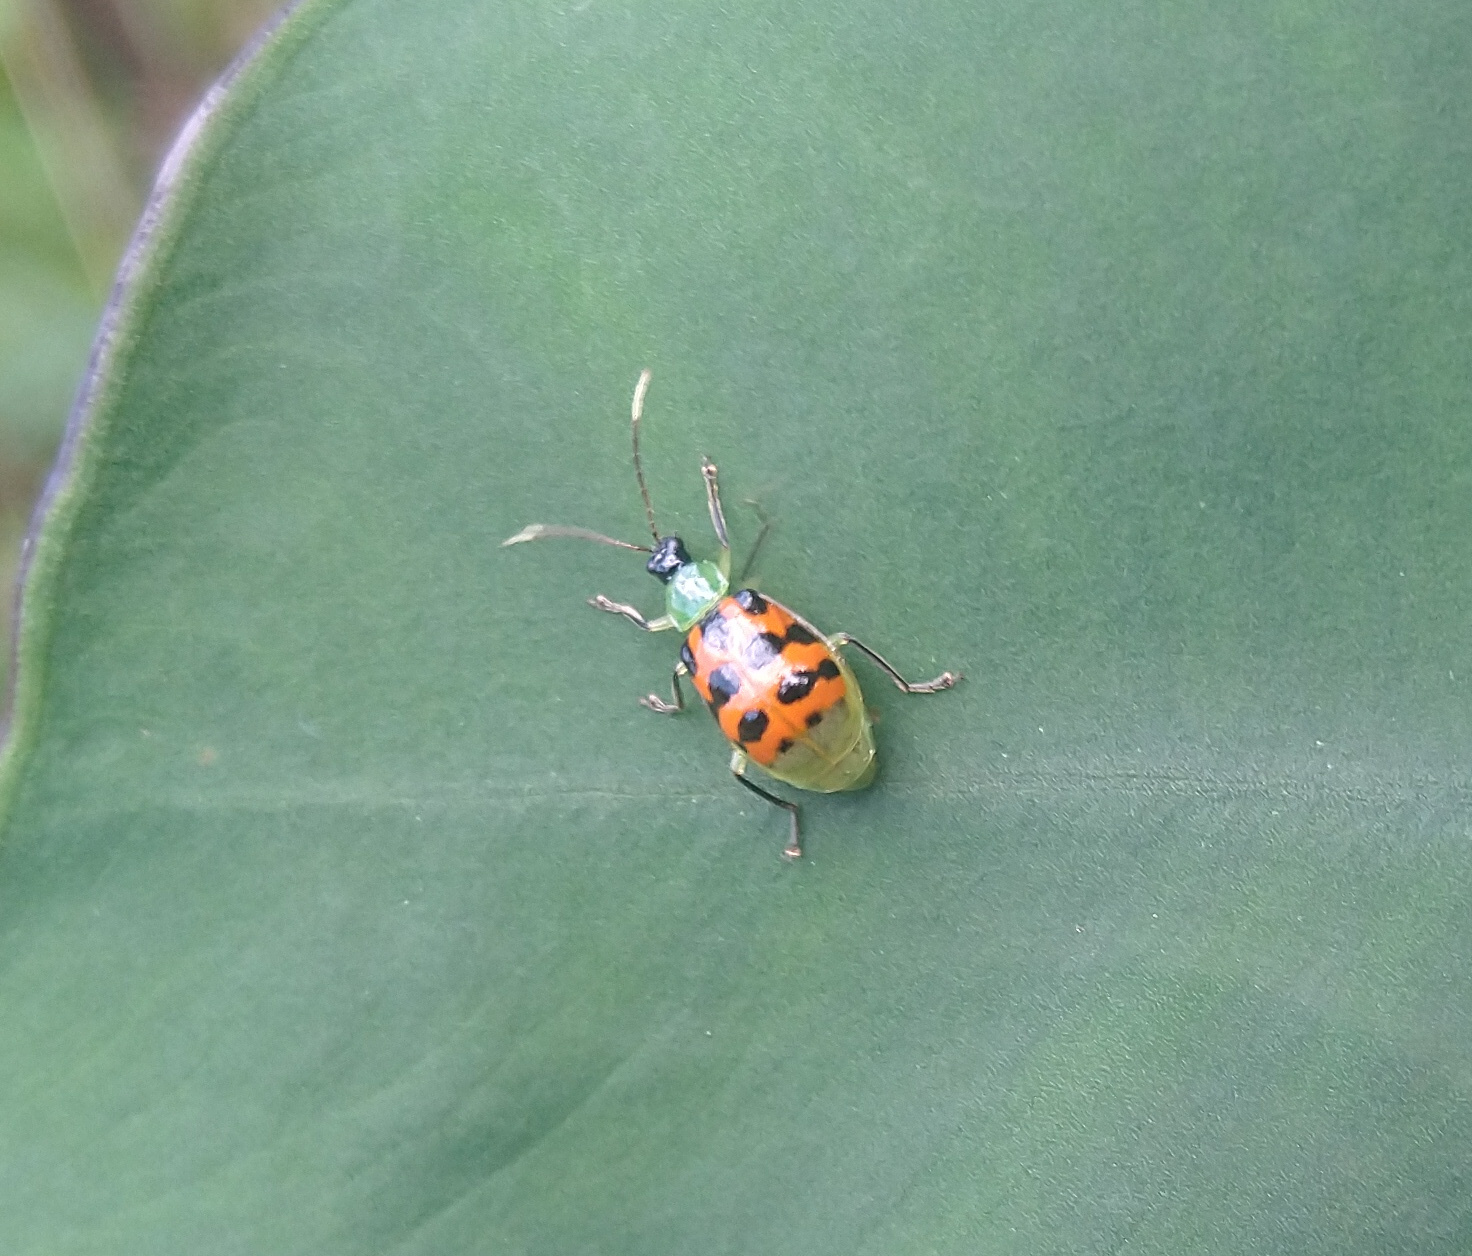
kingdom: Animalia
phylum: Arthropoda
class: Insecta
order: Coleoptera
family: Chrysomelidae
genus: Diabrotica
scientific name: Diabrotica limitata
